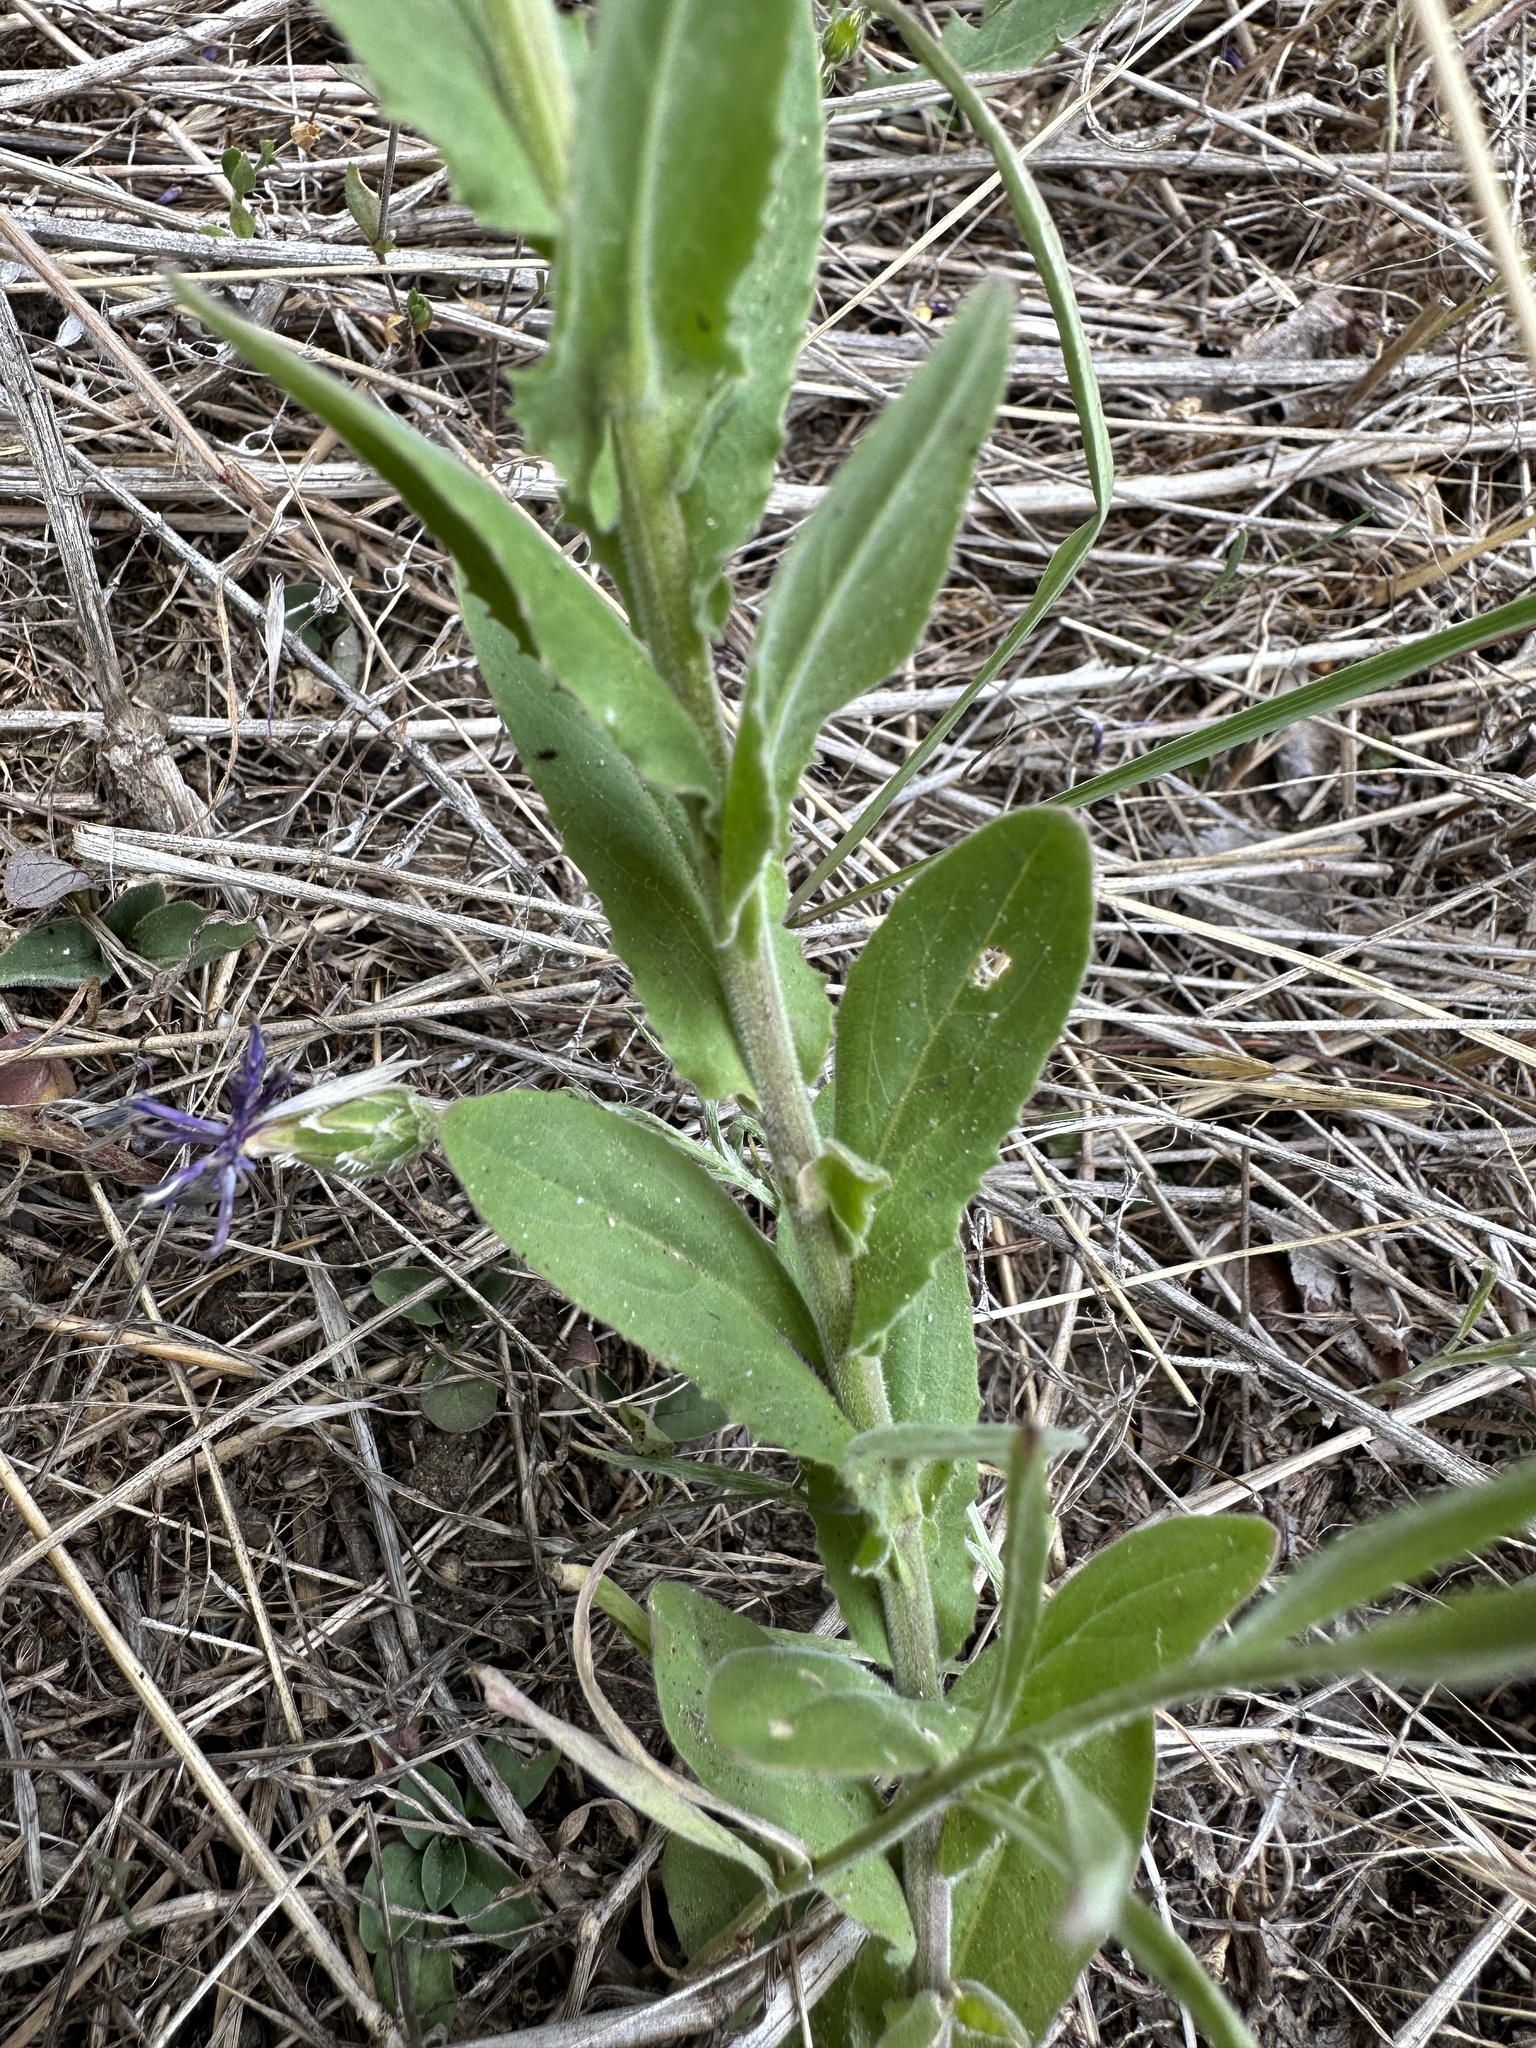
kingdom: Plantae
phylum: Tracheophyta
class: Magnoliopsida
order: Brassicales
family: Brassicaceae
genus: Lepidium
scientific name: Lepidium campestre
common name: Field pepperwort
